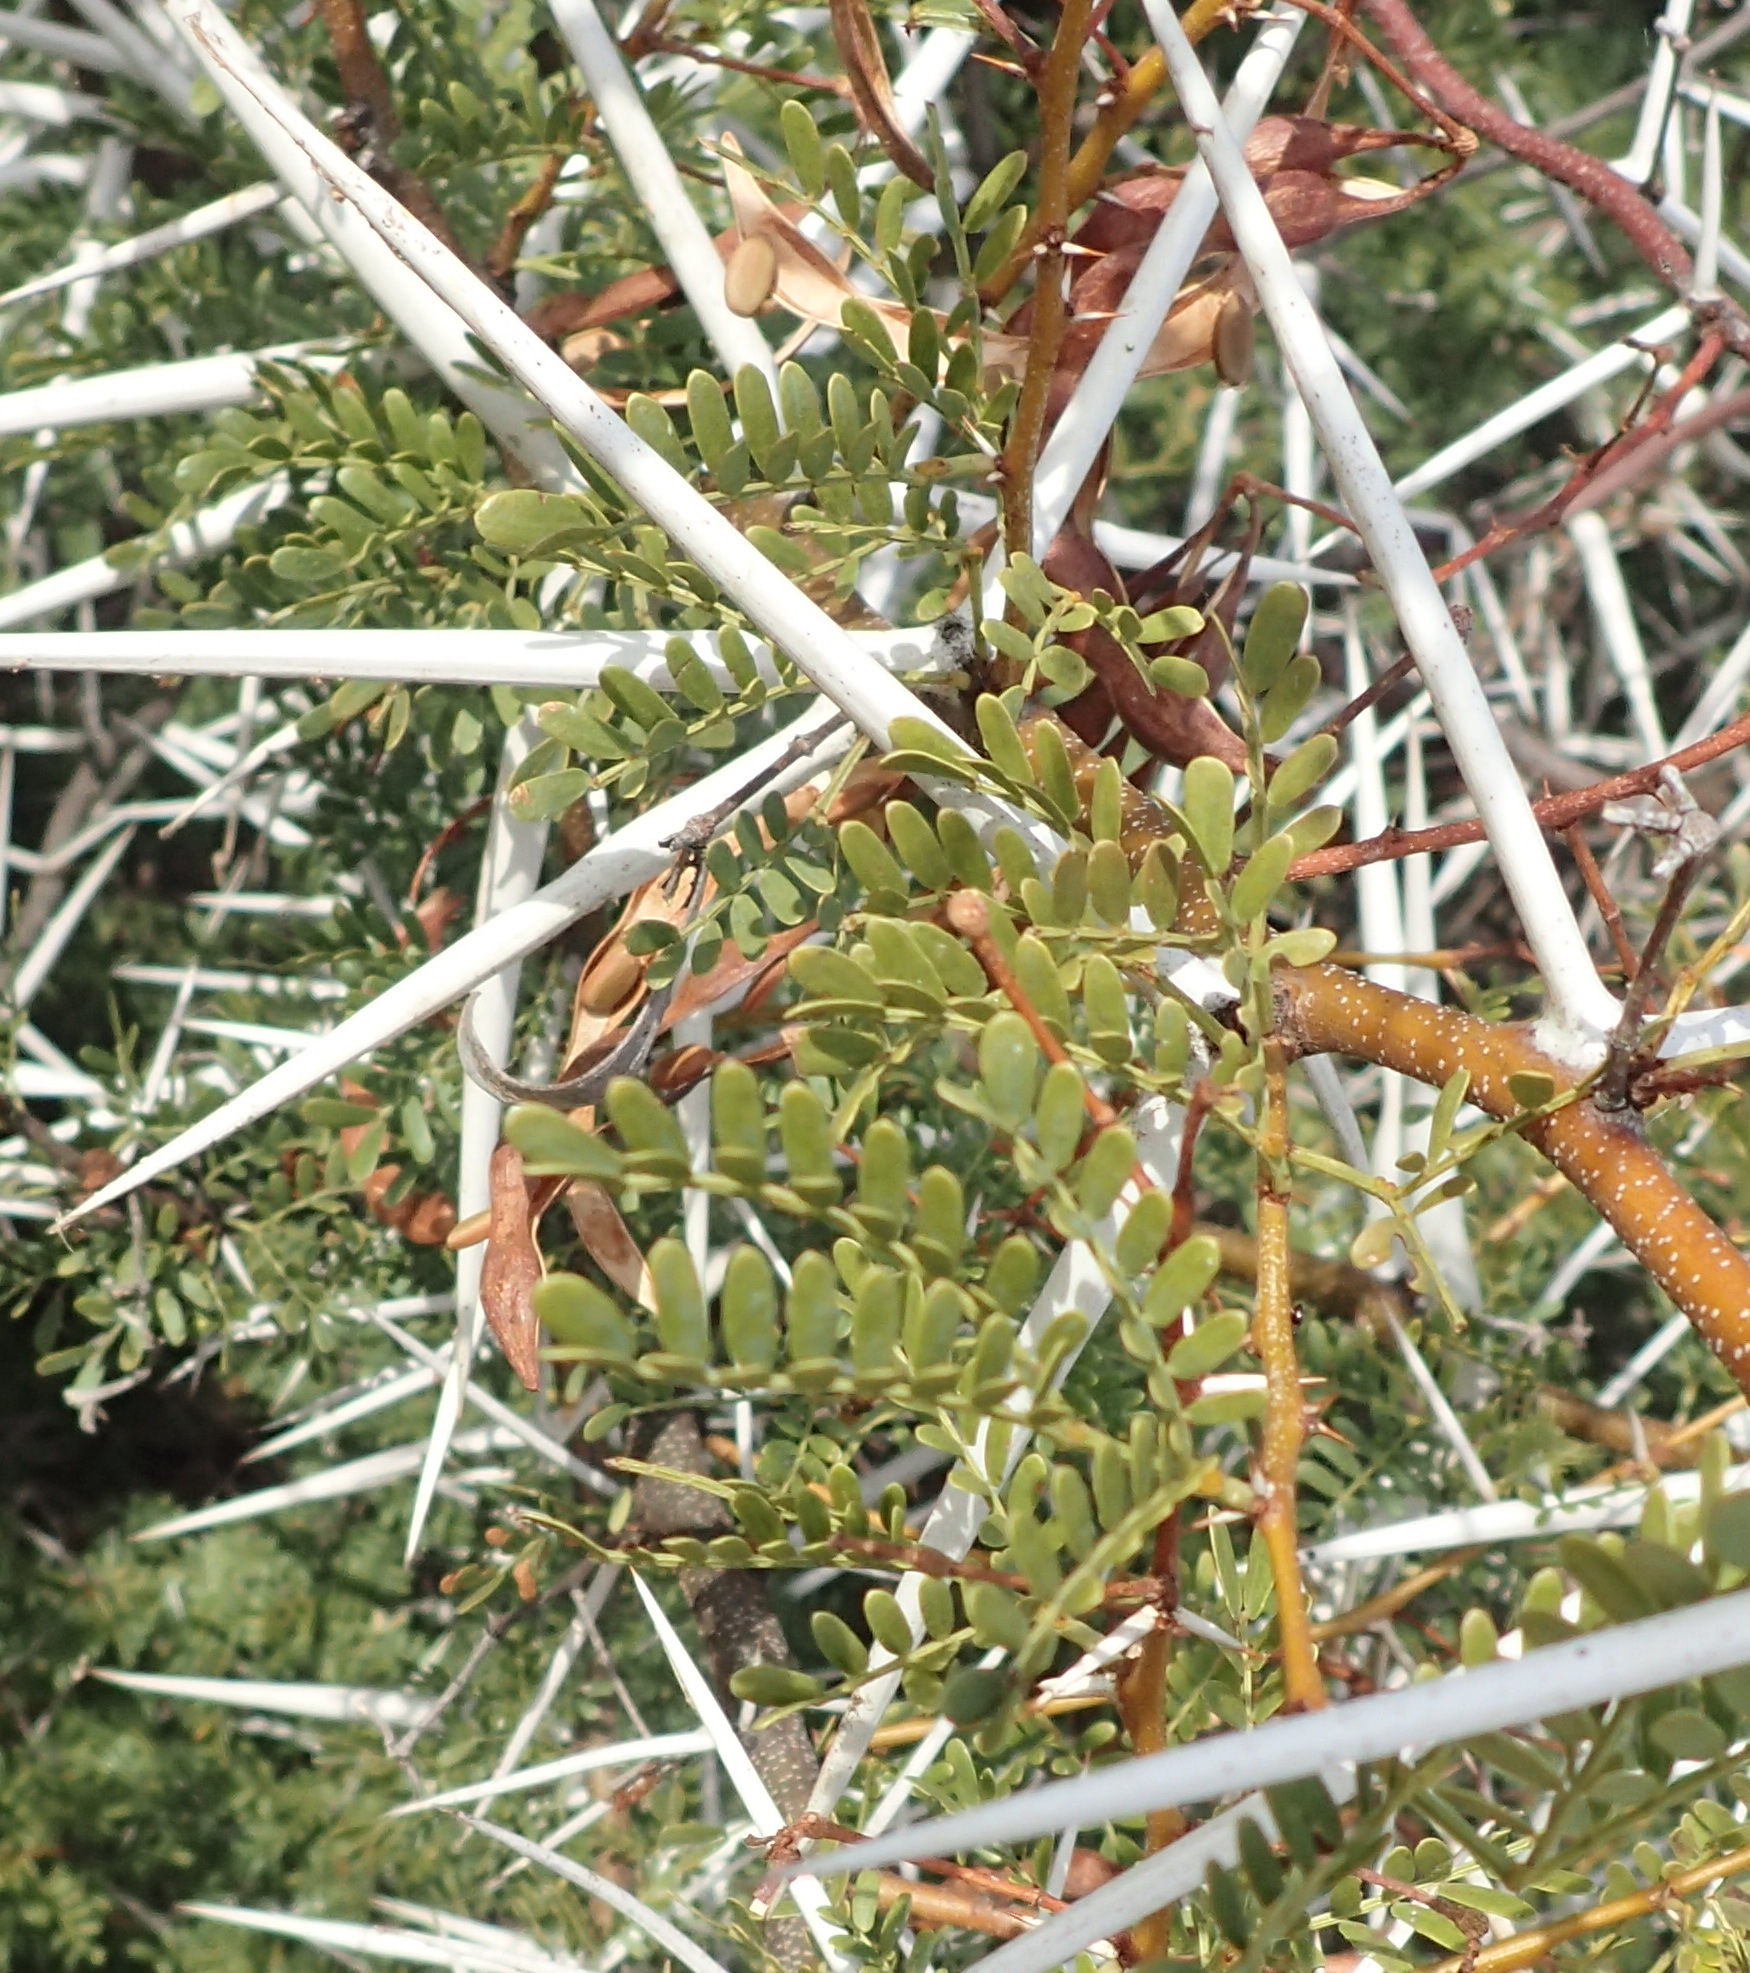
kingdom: Plantae
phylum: Tracheophyta
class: Magnoliopsida
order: Fabales
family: Fabaceae
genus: Vachellia
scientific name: Vachellia karroo
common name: Sweet thorn
